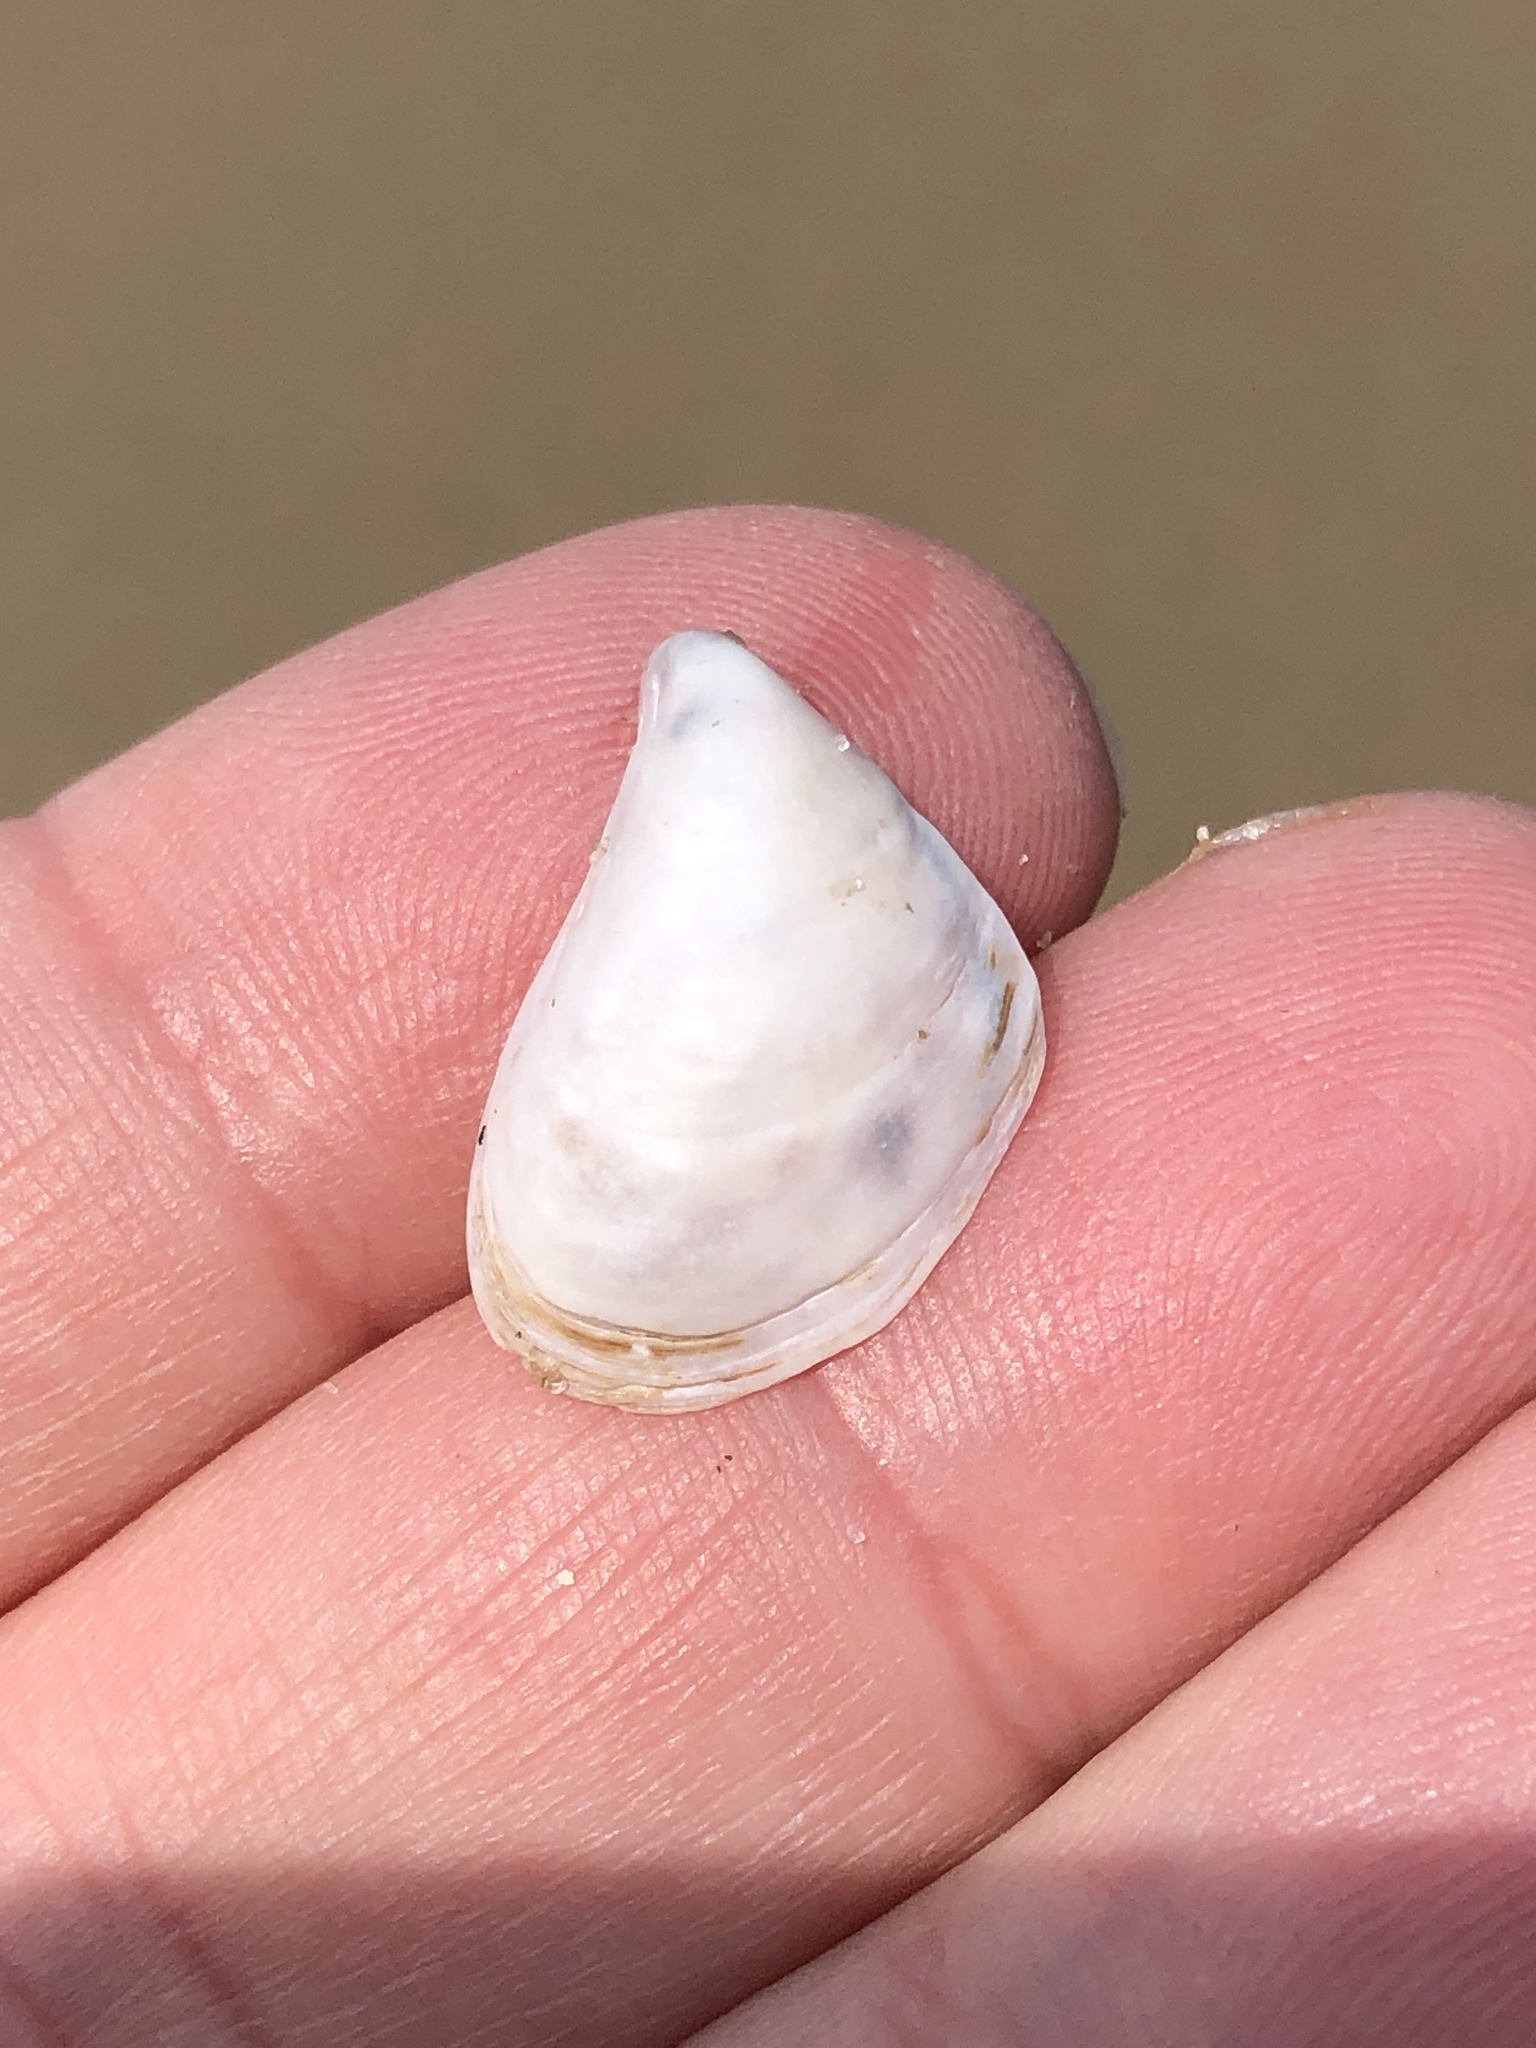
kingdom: Animalia
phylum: Mollusca
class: Bivalvia
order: Myida
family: Dreissenidae
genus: Dreissena
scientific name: Dreissena bugensis
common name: Quagga mussel
